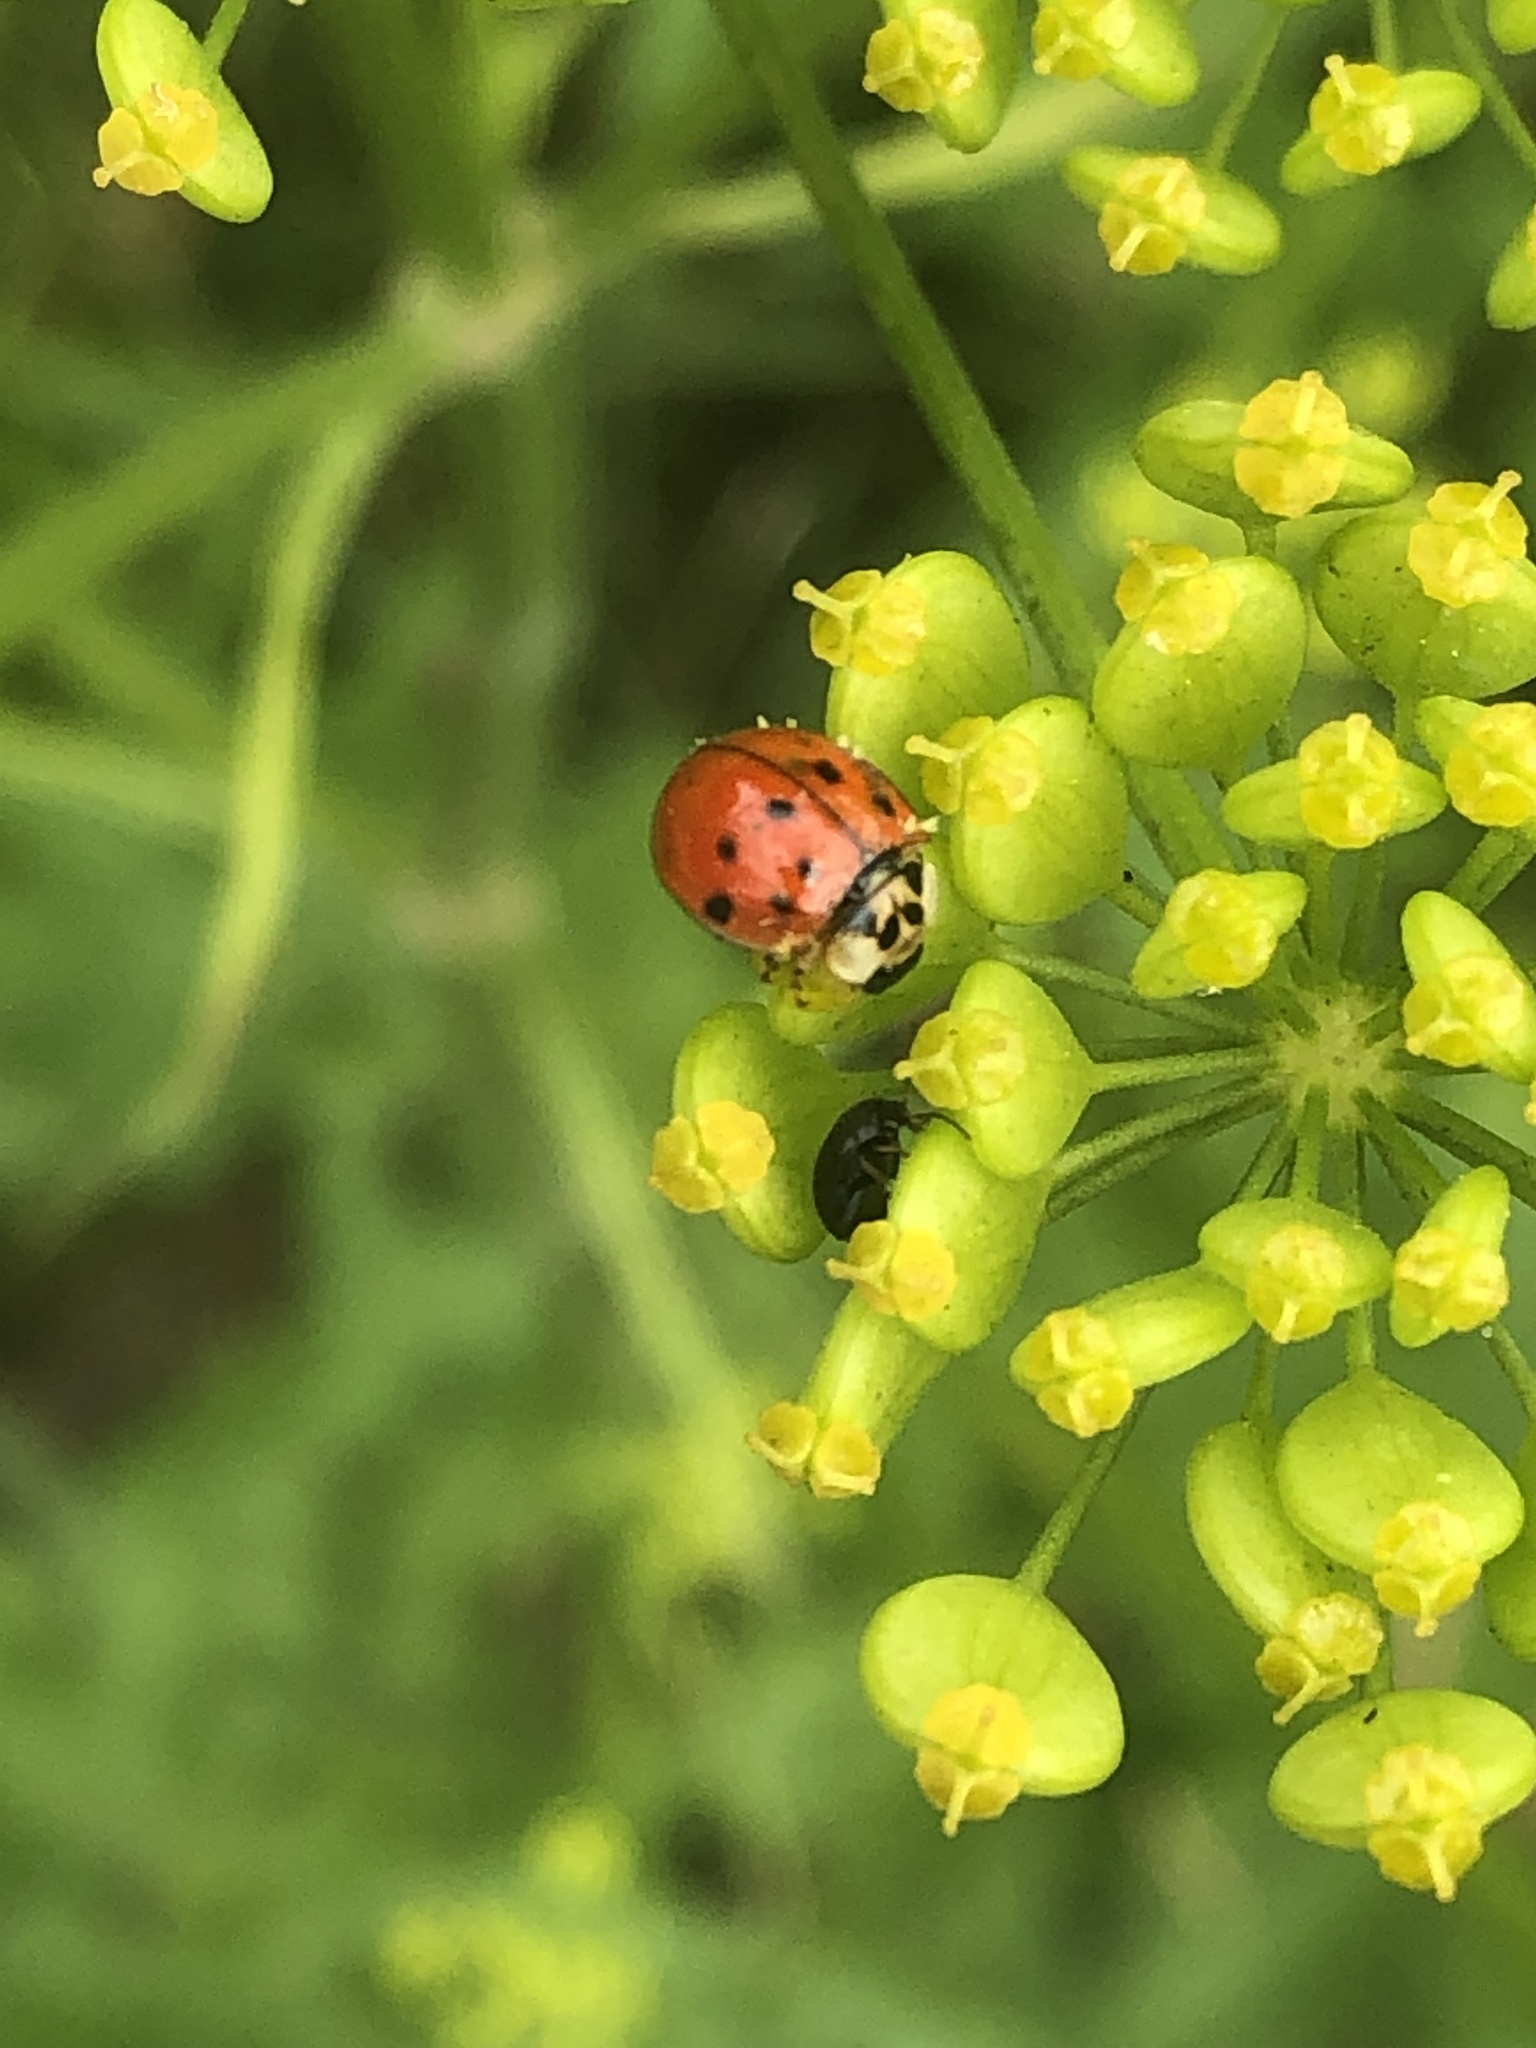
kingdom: Animalia
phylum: Arthropoda
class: Insecta
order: Coleoptera
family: Coccinellidae
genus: Harmonia
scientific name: Harmonia axyridis
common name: Harlequin ladybird
